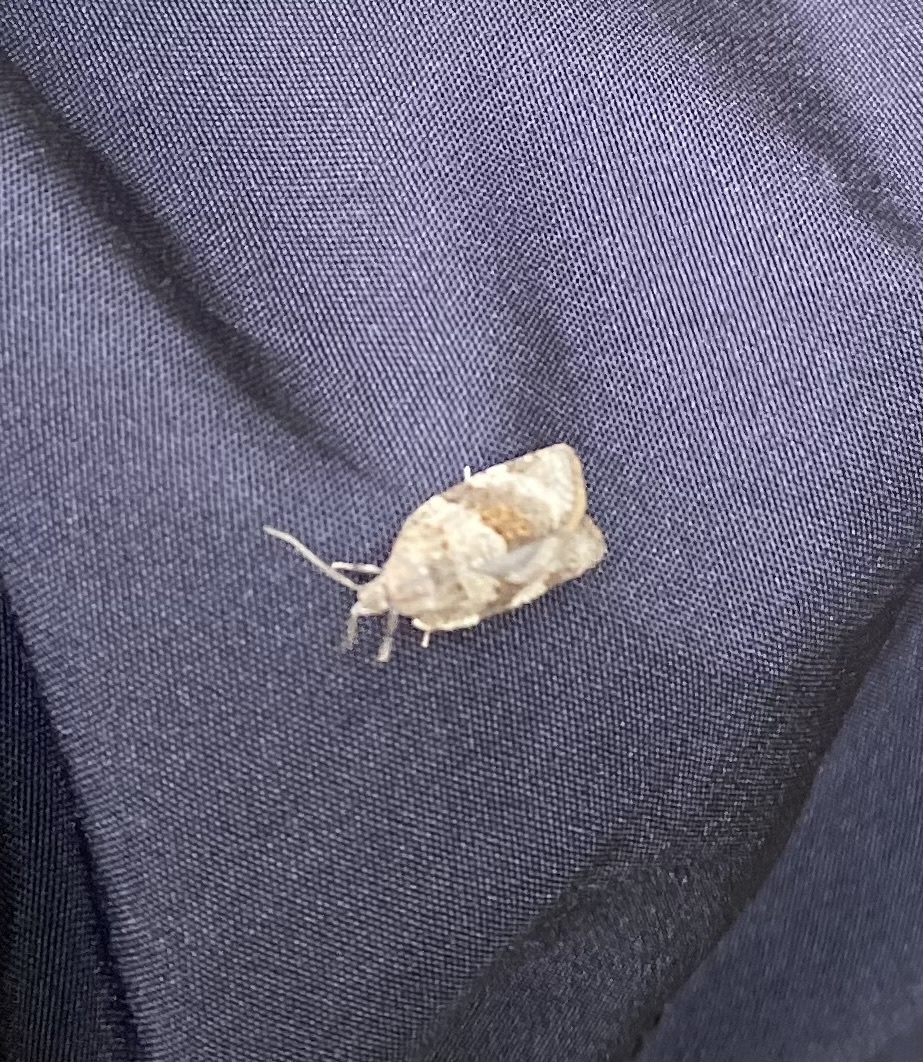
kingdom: Animalia
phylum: Arthropoda
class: Insecta
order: Lepidoptera
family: Tortricidae
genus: Syndemis
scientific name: Syndemis musculana
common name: Dark-barred twist
